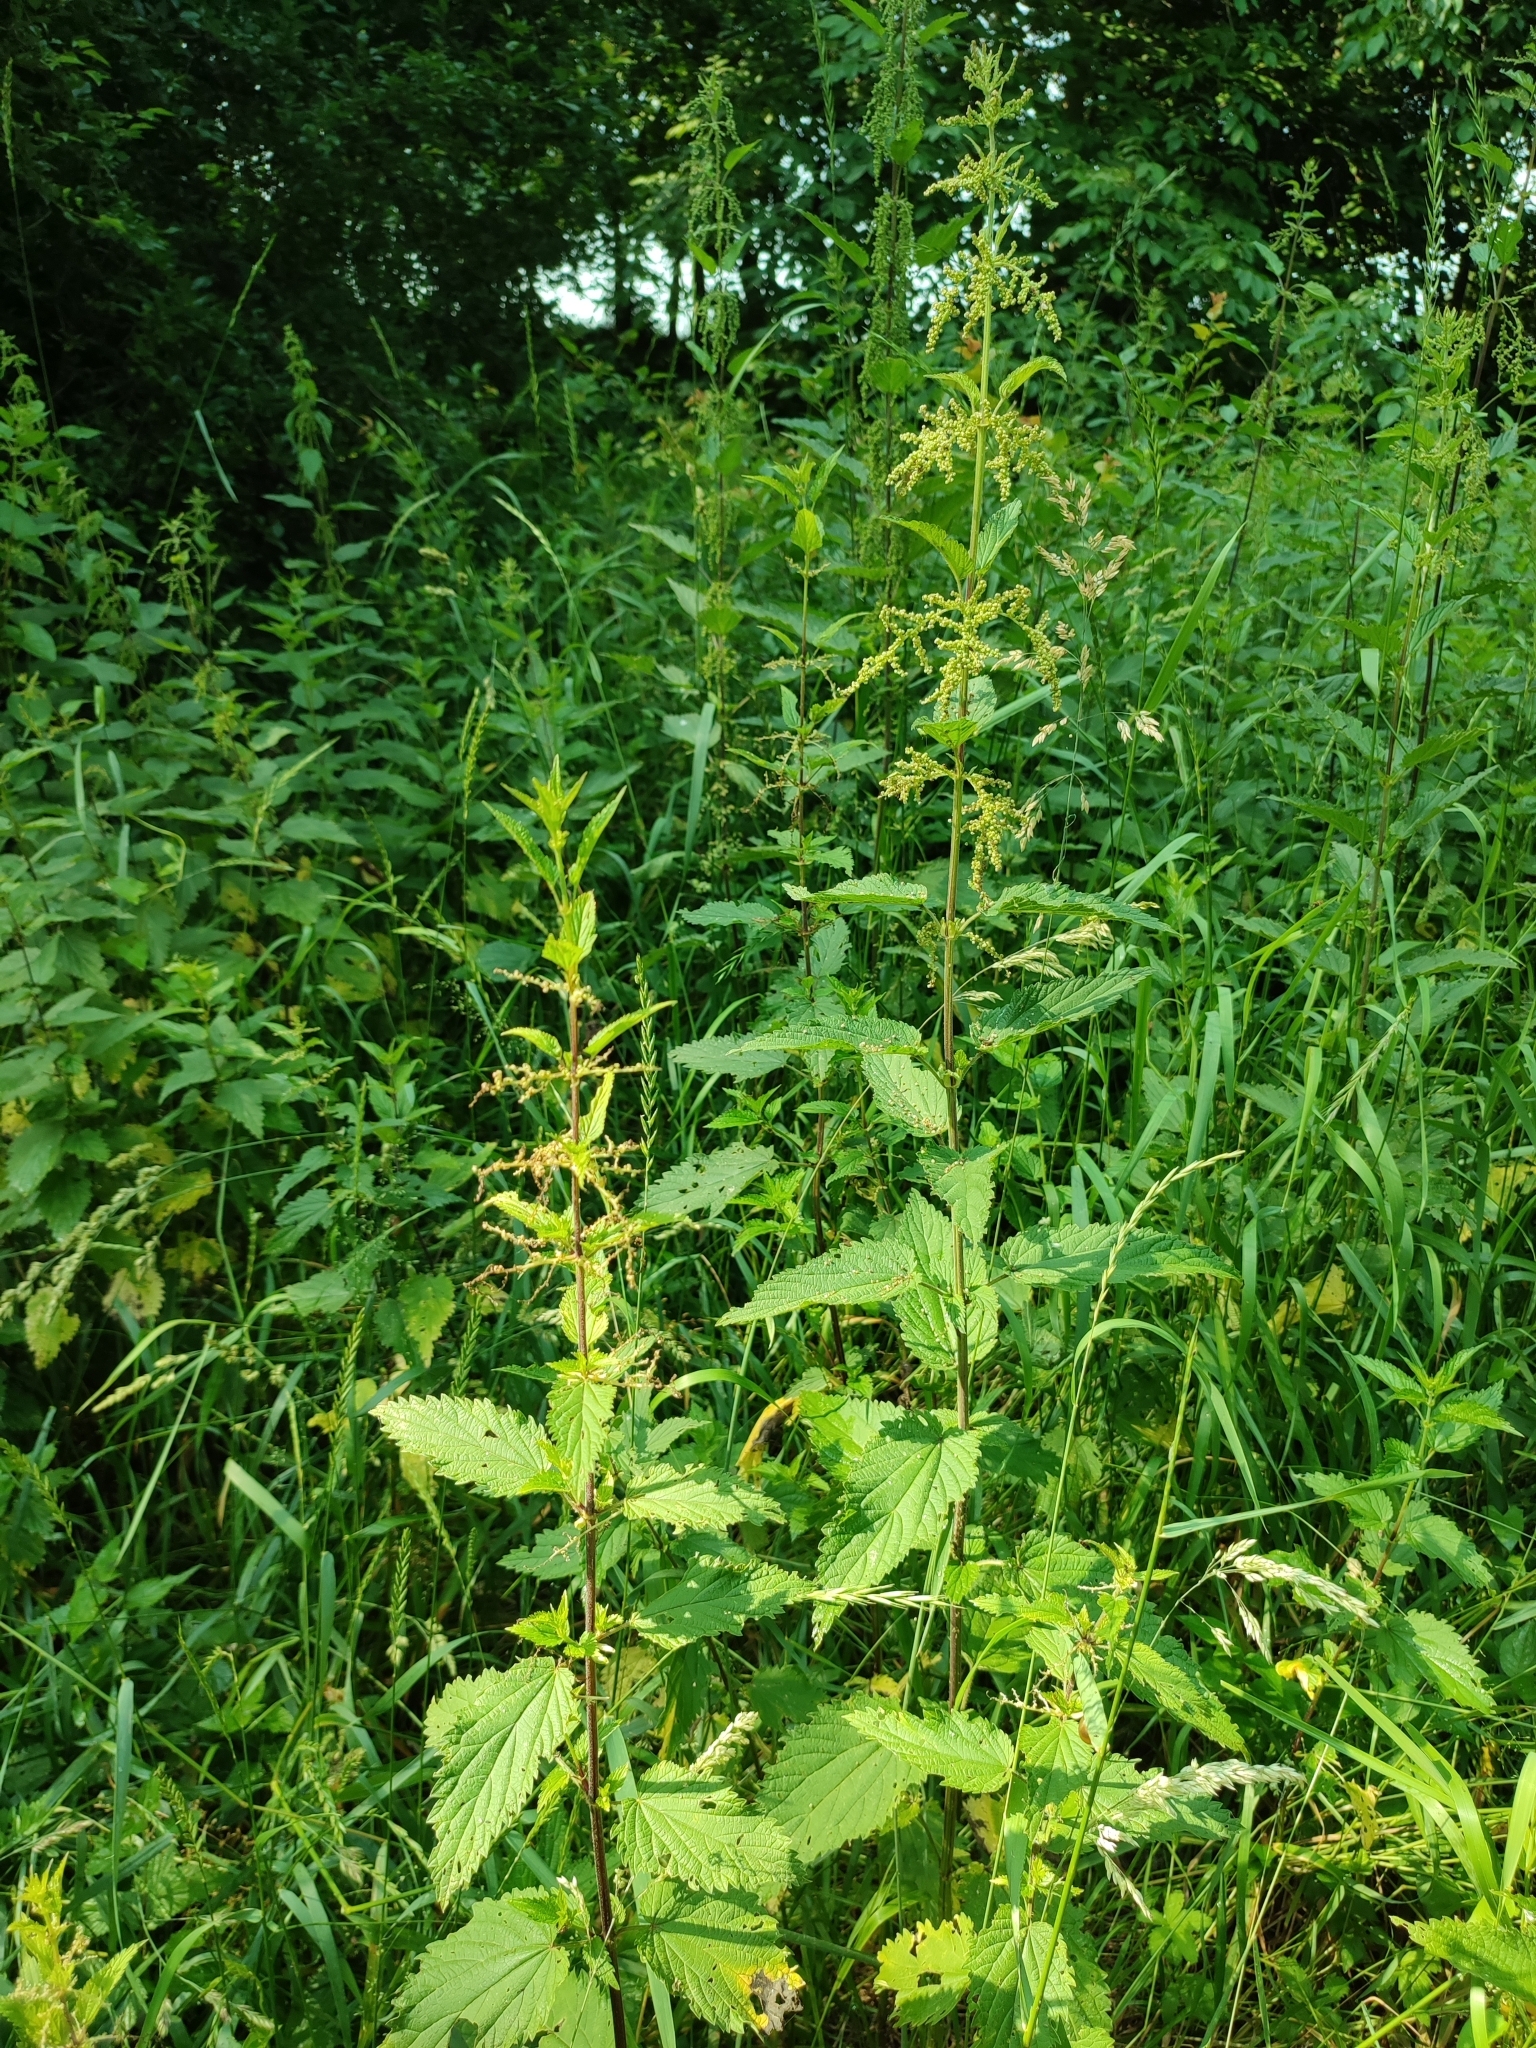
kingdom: Plantae
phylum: Tracheophyta
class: Magnoliopsida
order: Rosales
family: Urticaceae
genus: Urtica
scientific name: Urtica dioica
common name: Common nettle
